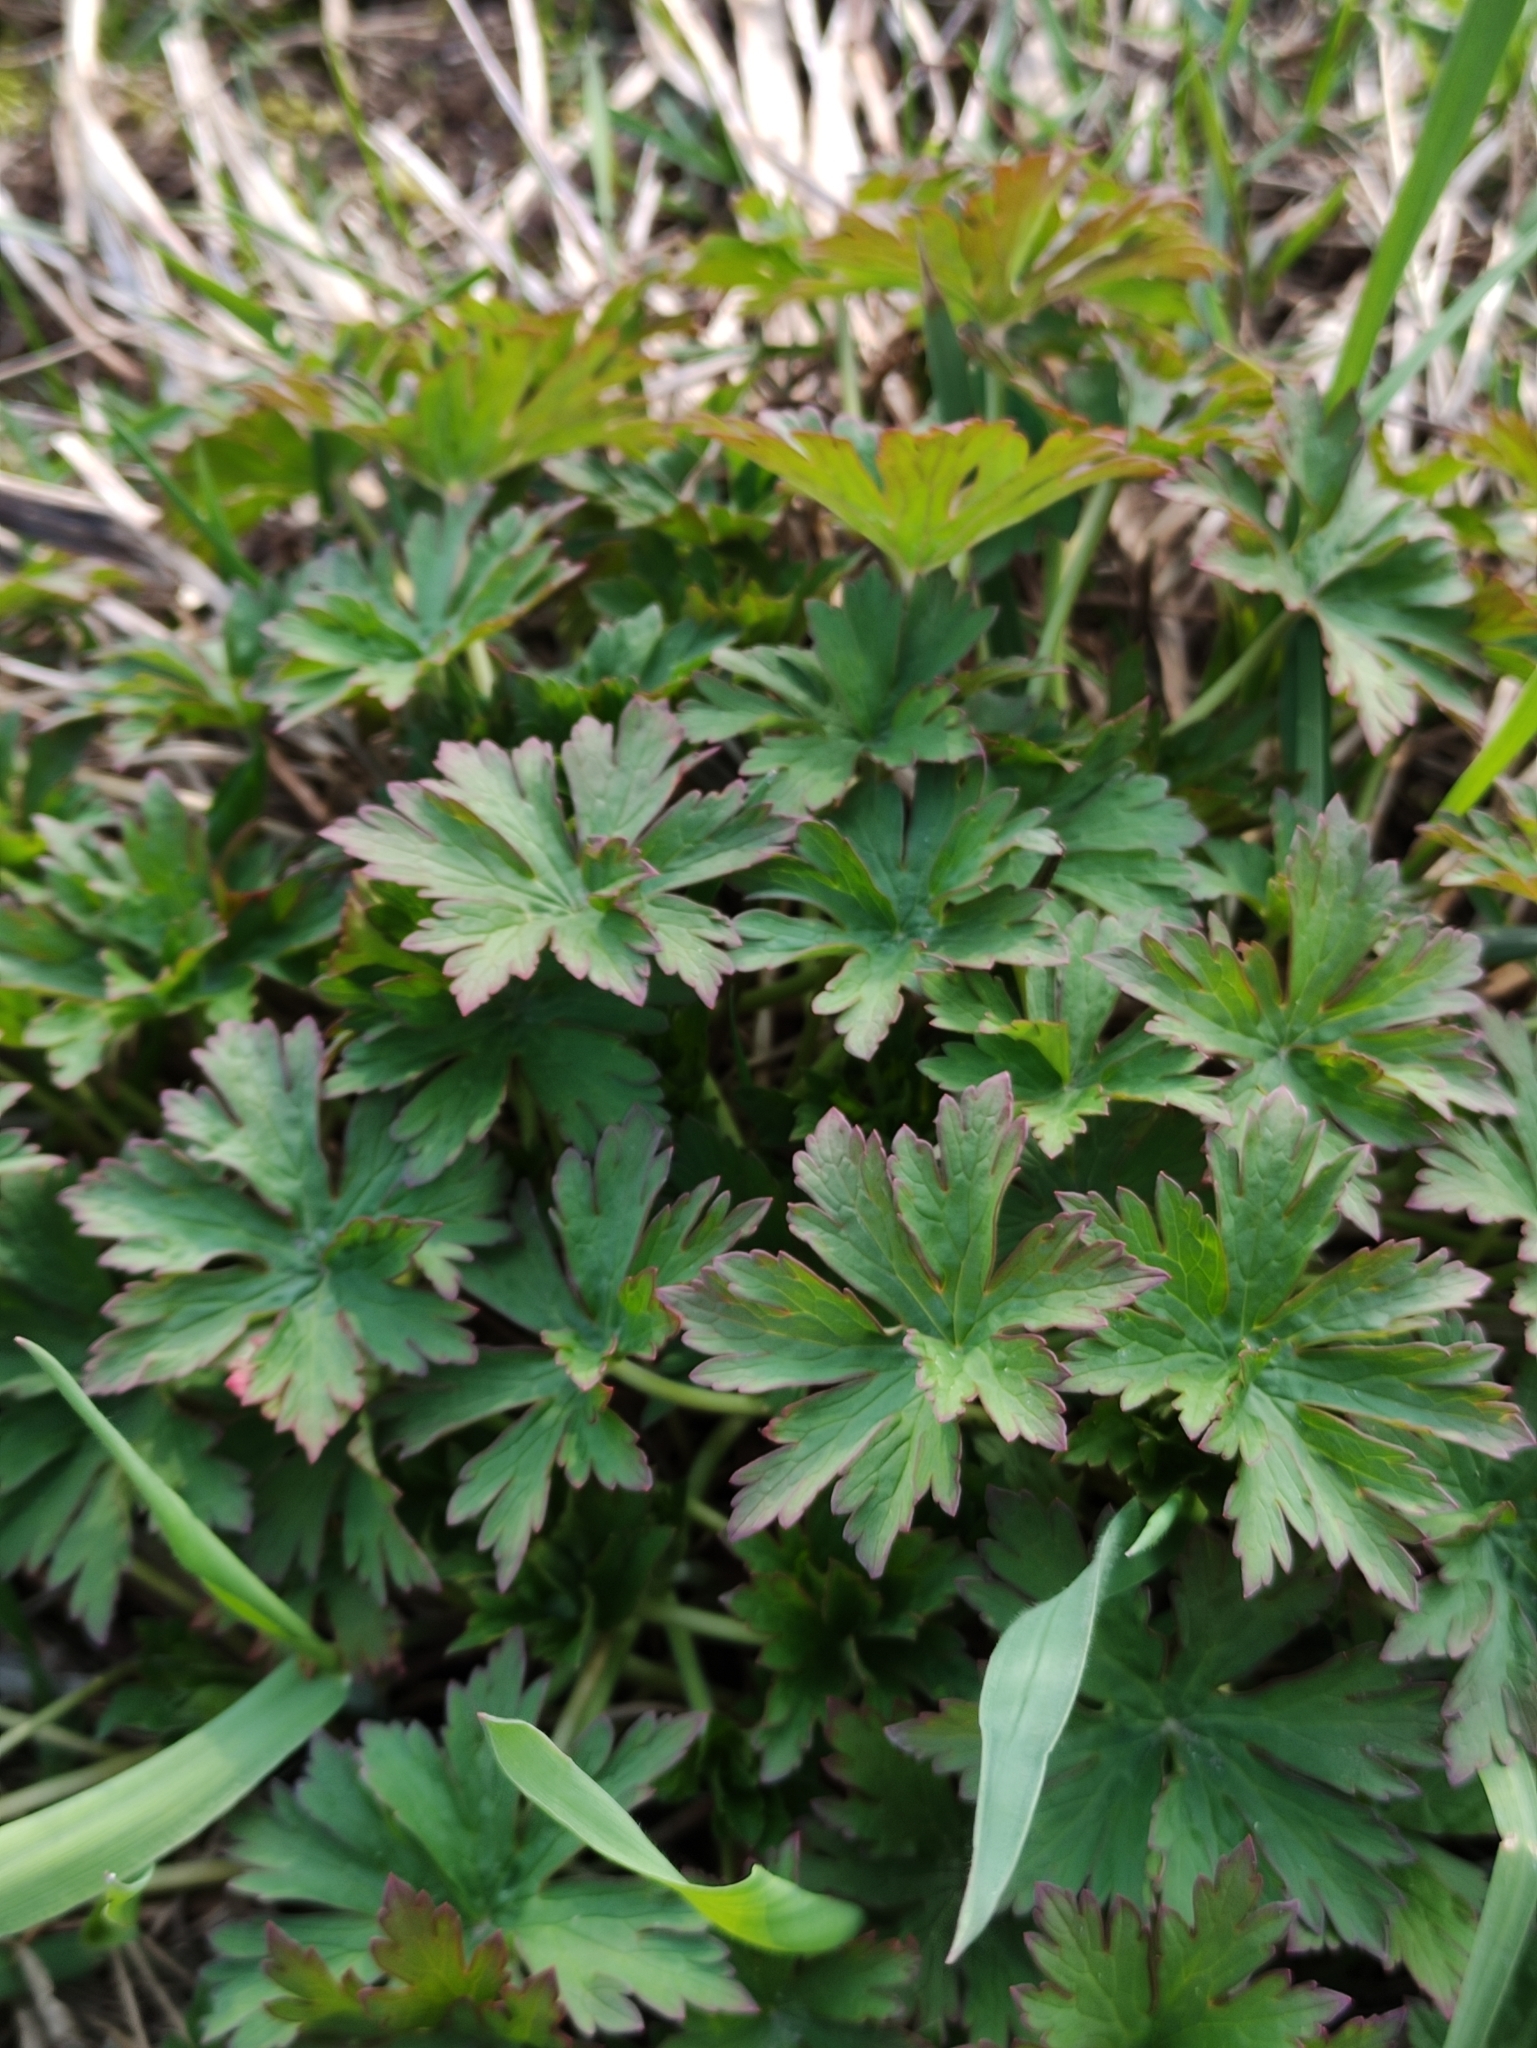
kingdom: Plantae
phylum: Tracheophyta
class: Magnoliopsida
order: Geraniales
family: Geraniaceae
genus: Geranium
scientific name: Geranium pratense
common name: Meadow crane's-bill
